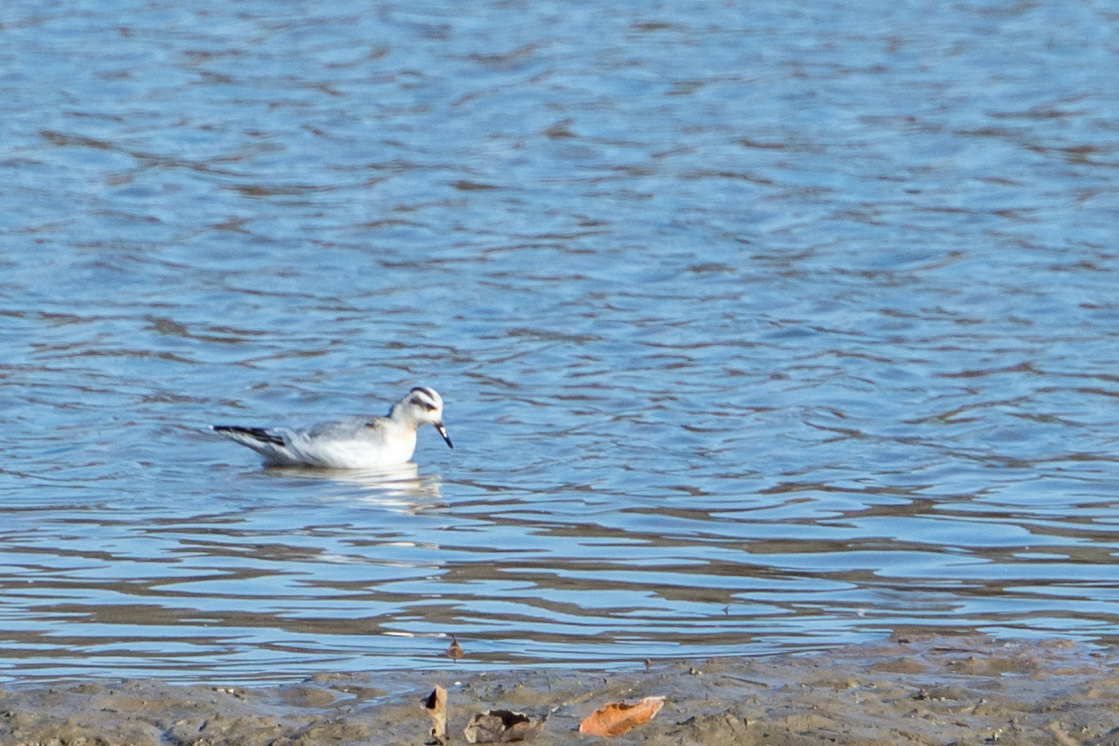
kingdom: Animalia
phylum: Chordata
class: Aves
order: Charadriiformes
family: Scolopacidae
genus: Phalaropus
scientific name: Phalaropus fulicarius
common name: Red phalarope
